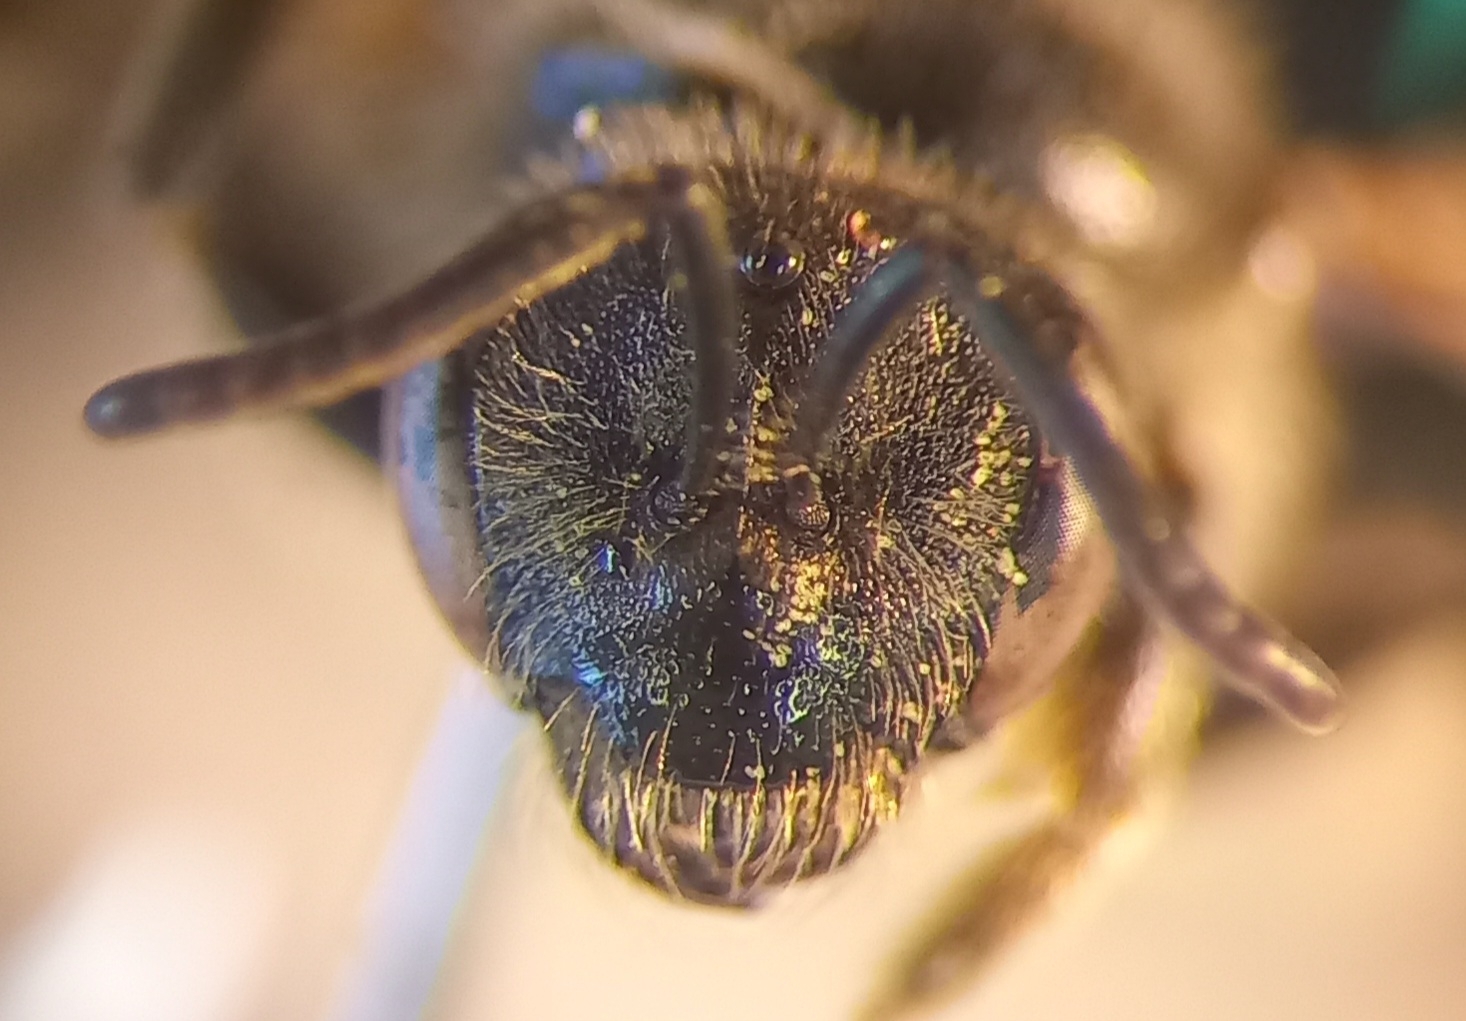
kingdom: Animalia
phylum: Arthropoda
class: Insecta
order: Hymenoptera
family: Halictidae
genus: Lasioglossum
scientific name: Lasioglossum marginatum
